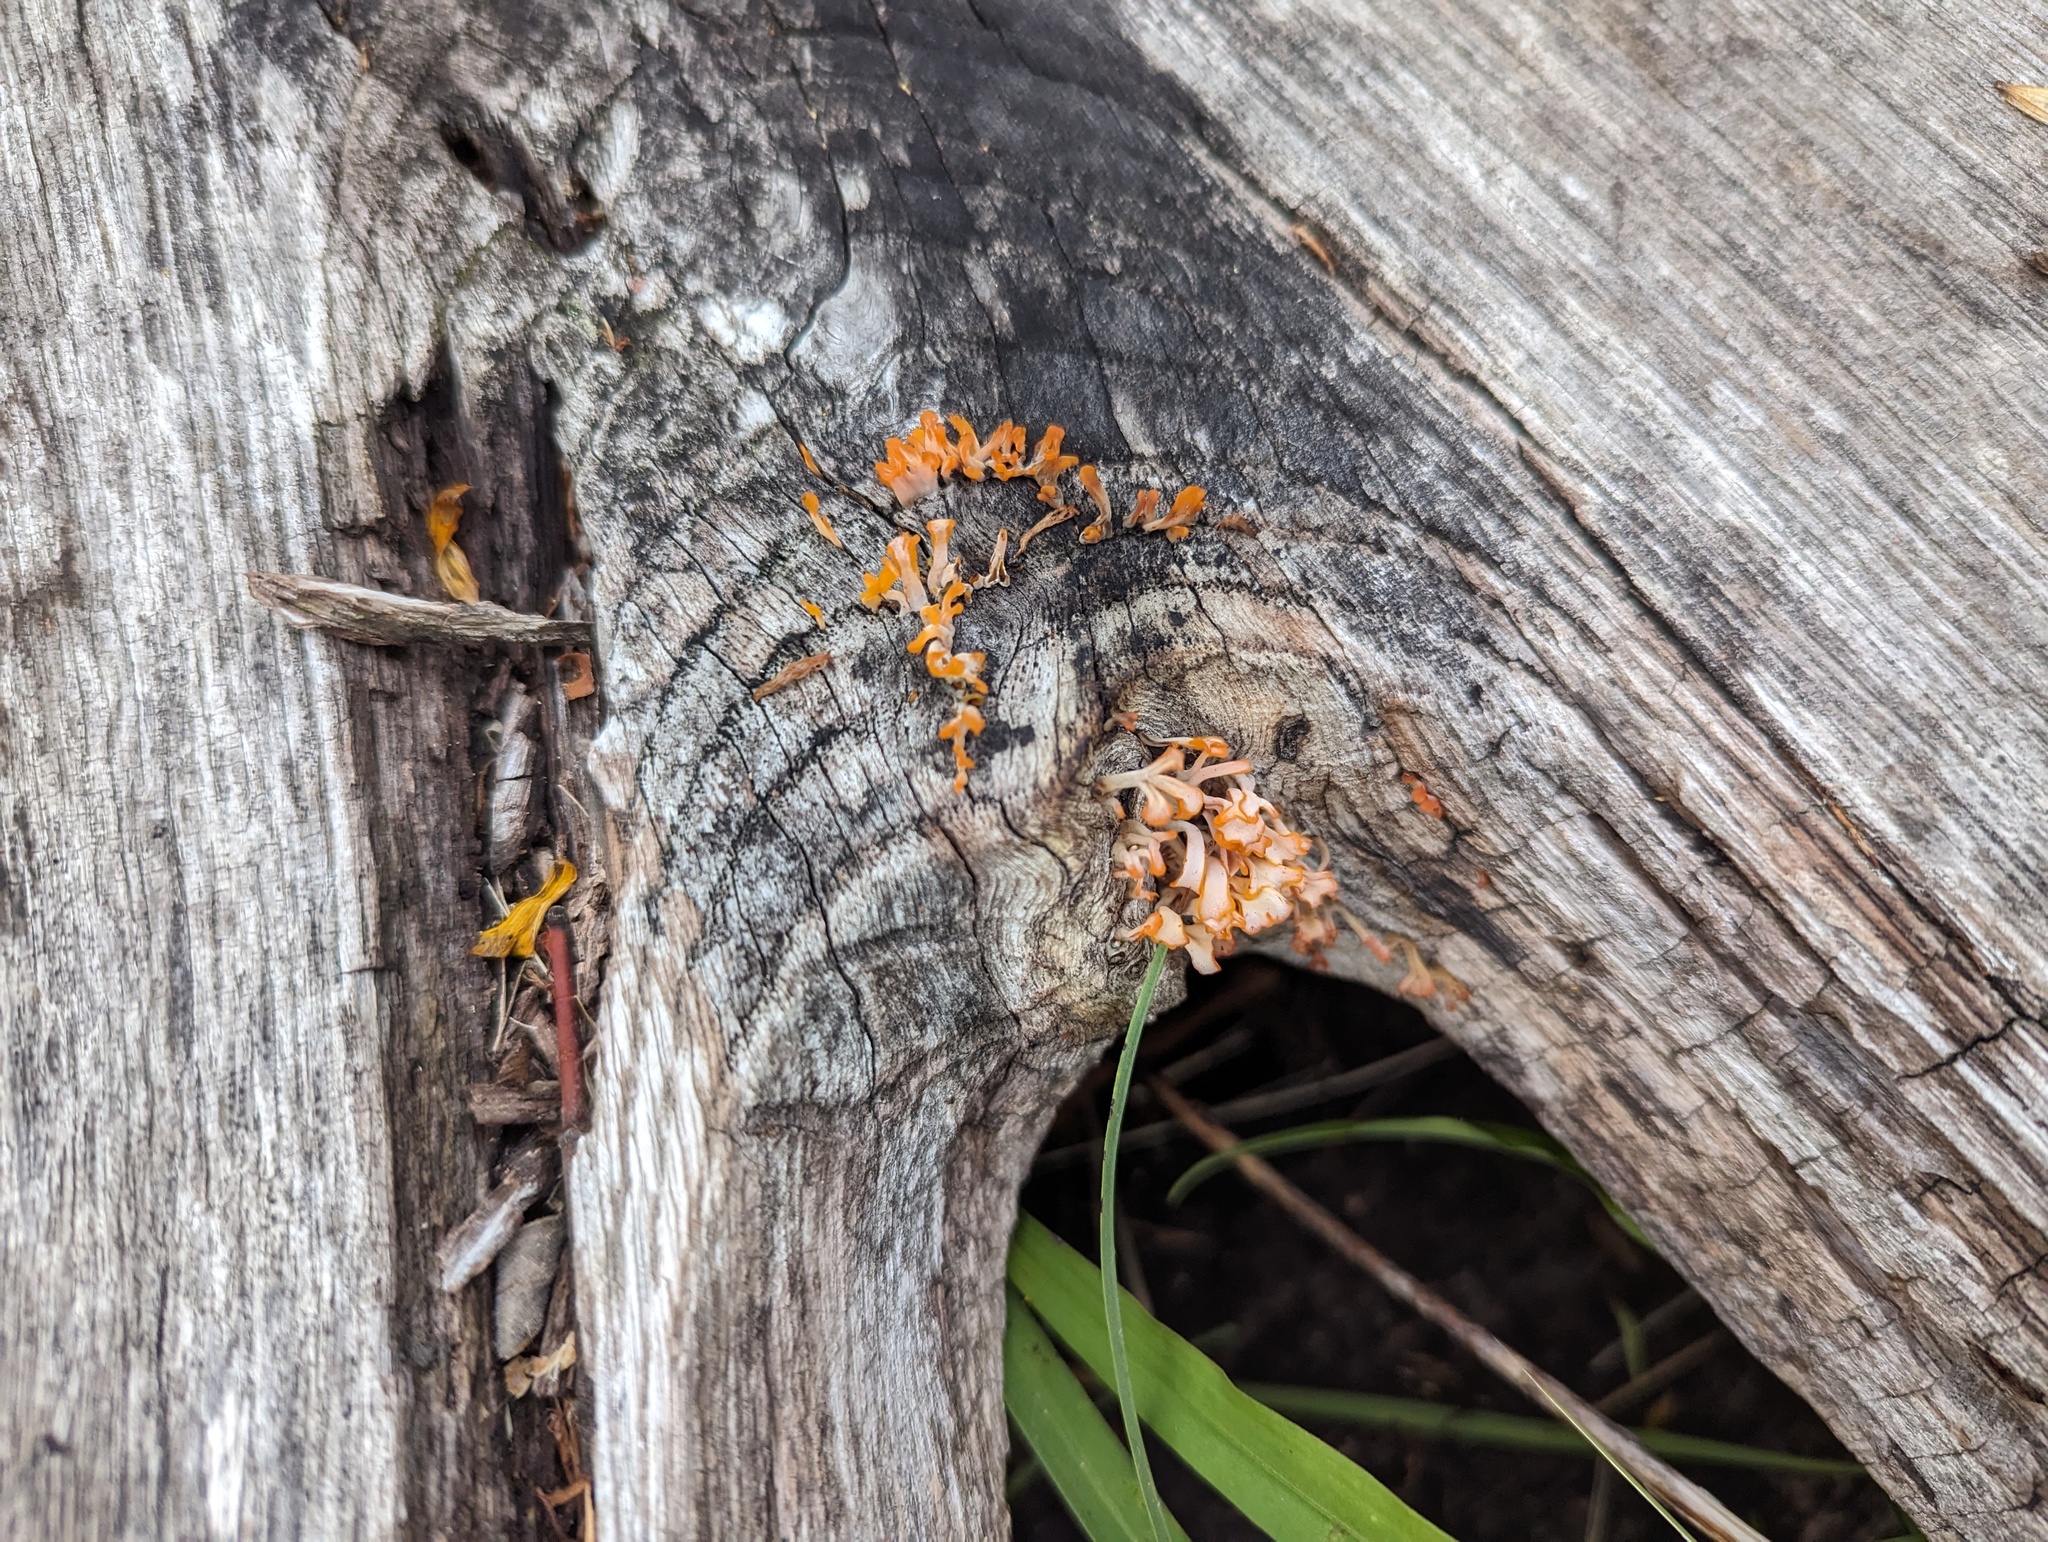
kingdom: Fungi
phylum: Basidiomycota
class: Dacrymycetes
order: Dacrymycetales
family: Dacrymycetaceae
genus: Dacrymyces
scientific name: Dacrymyces spathularius
